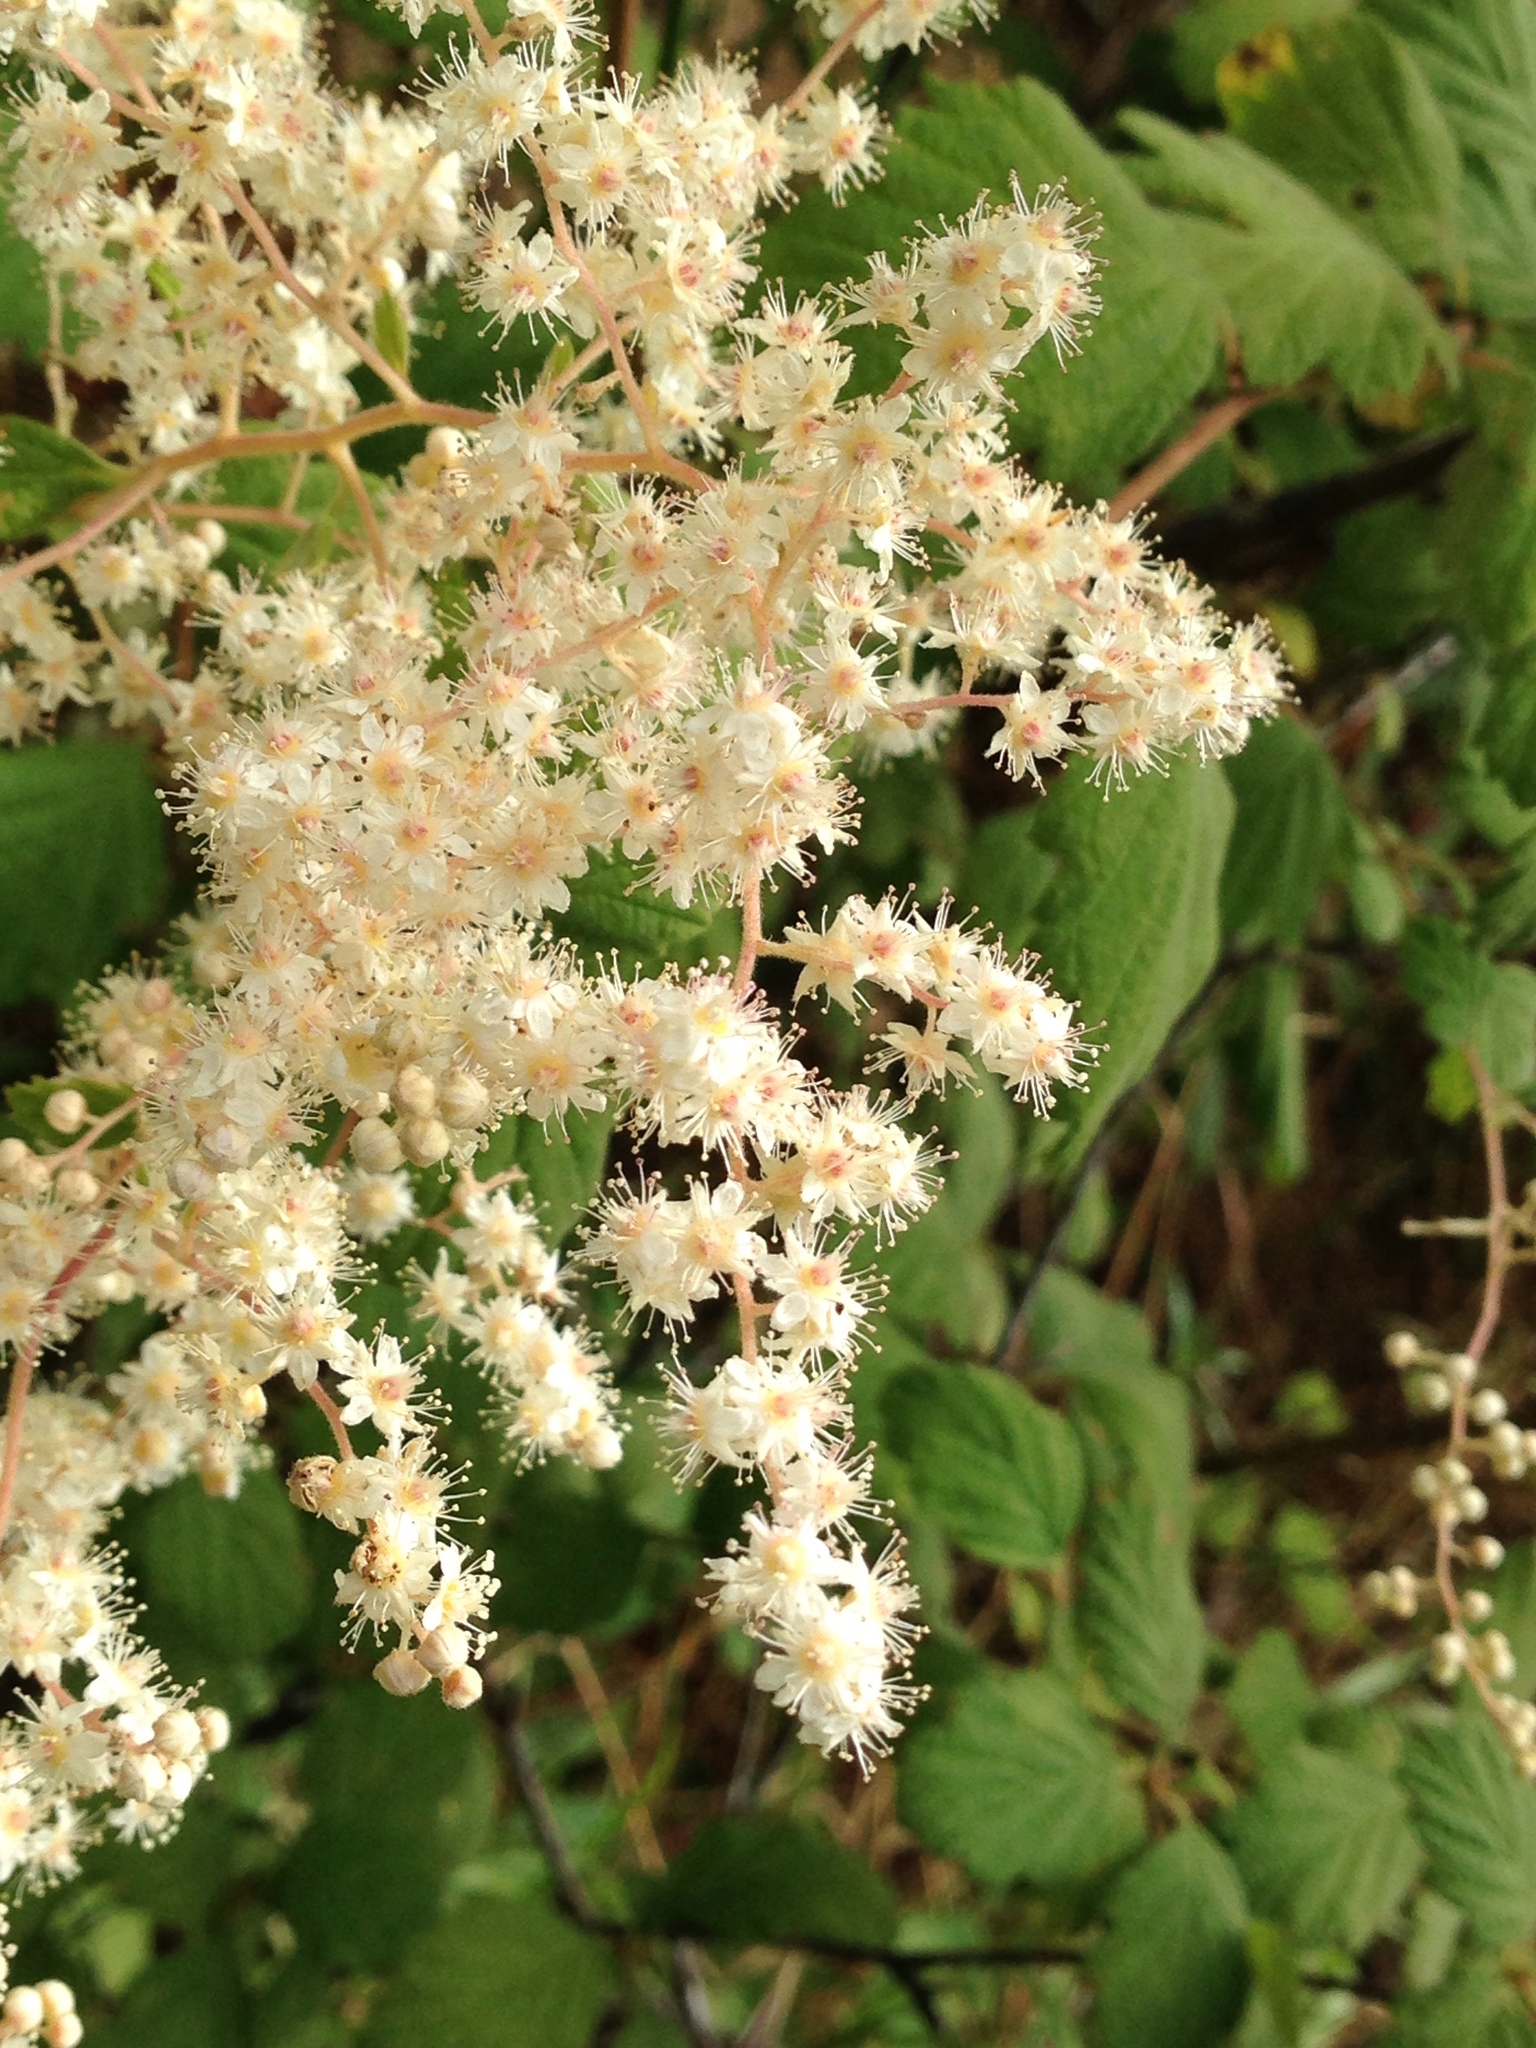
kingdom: Plantae
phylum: Tracheophyta
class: Magnoliopsida
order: Rosales
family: Rosaceae
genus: Holodiscus
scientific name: Holodiscus discolor
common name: Oceanspray
